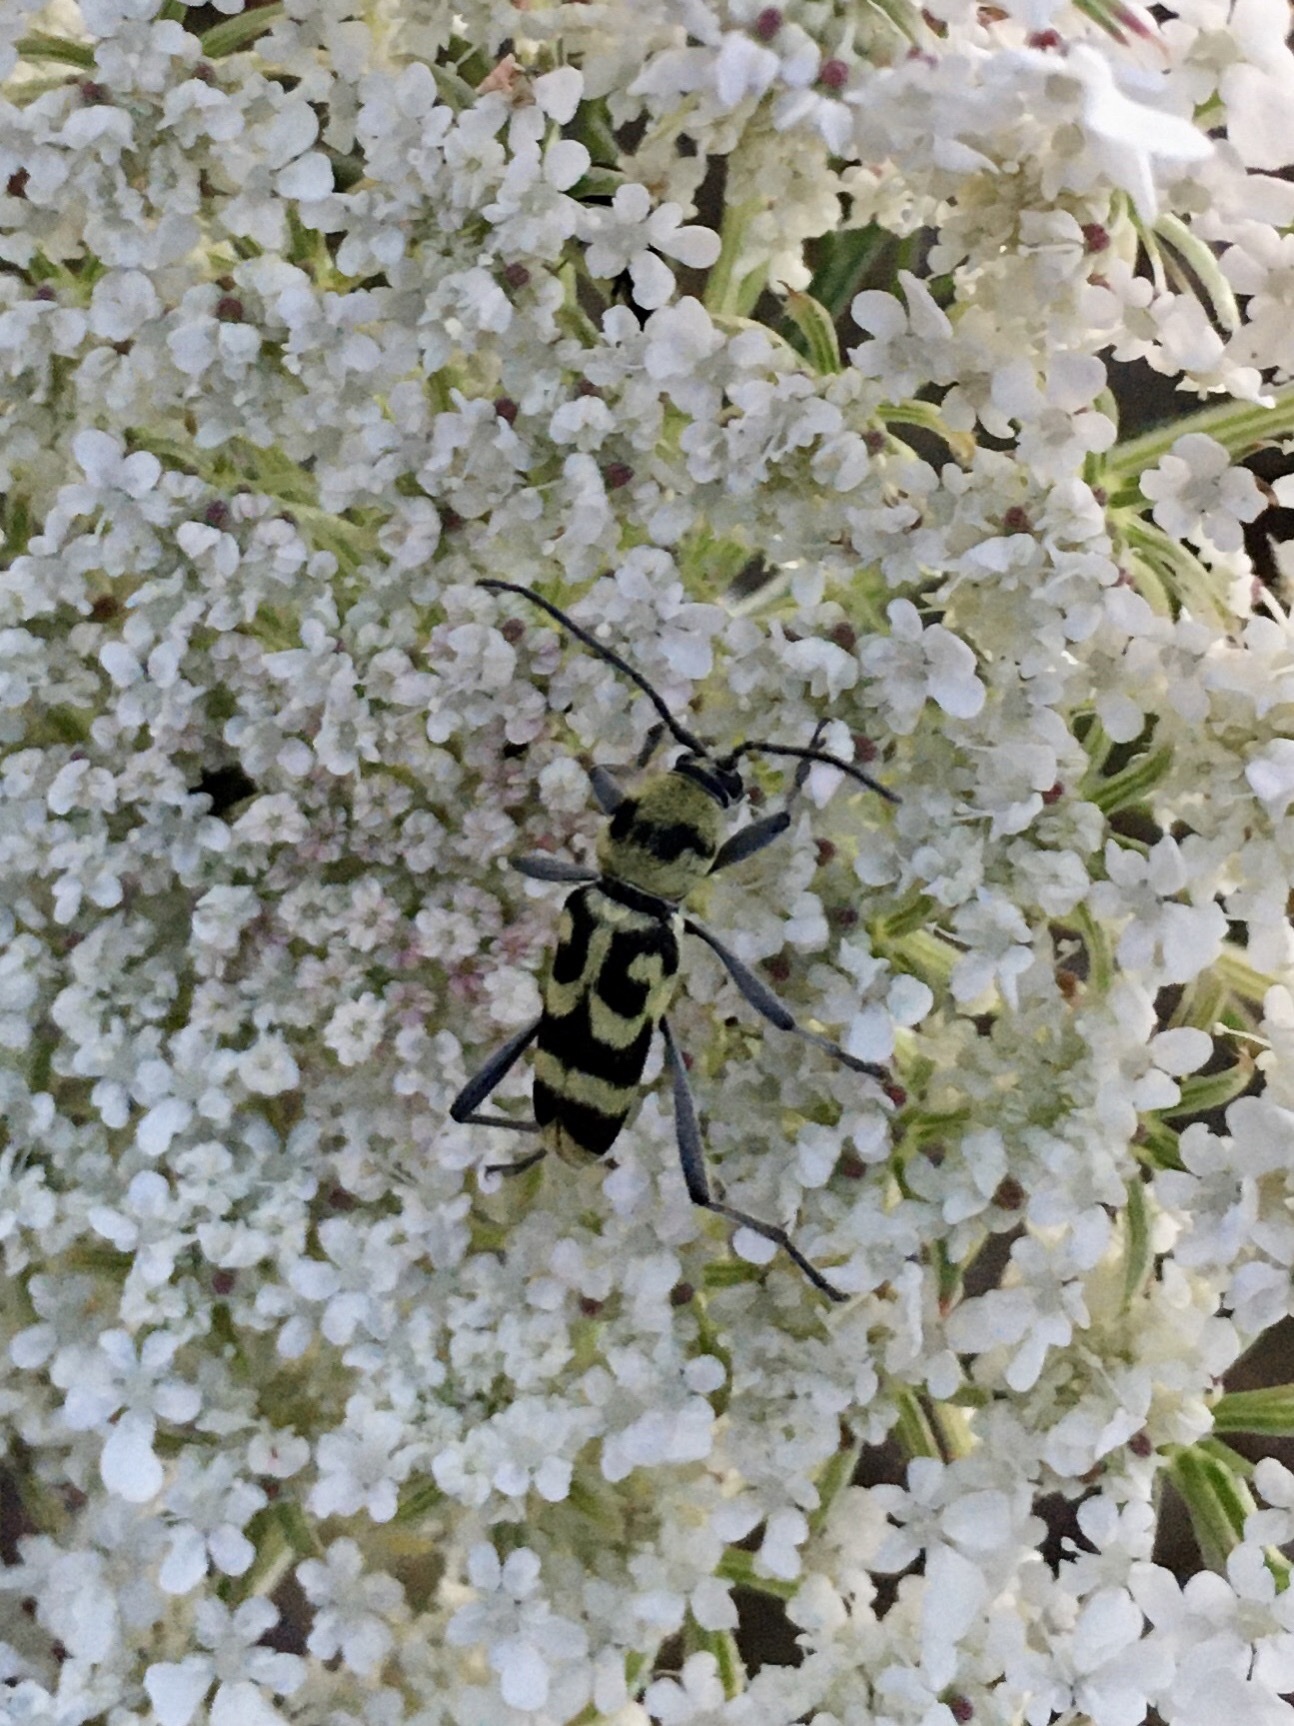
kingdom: Animalia
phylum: Arthropoda
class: Insecta
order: Coleoptera
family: Cerambycidae
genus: Chlorophorus
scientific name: Chlorophorus varius
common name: Grape wood borer
